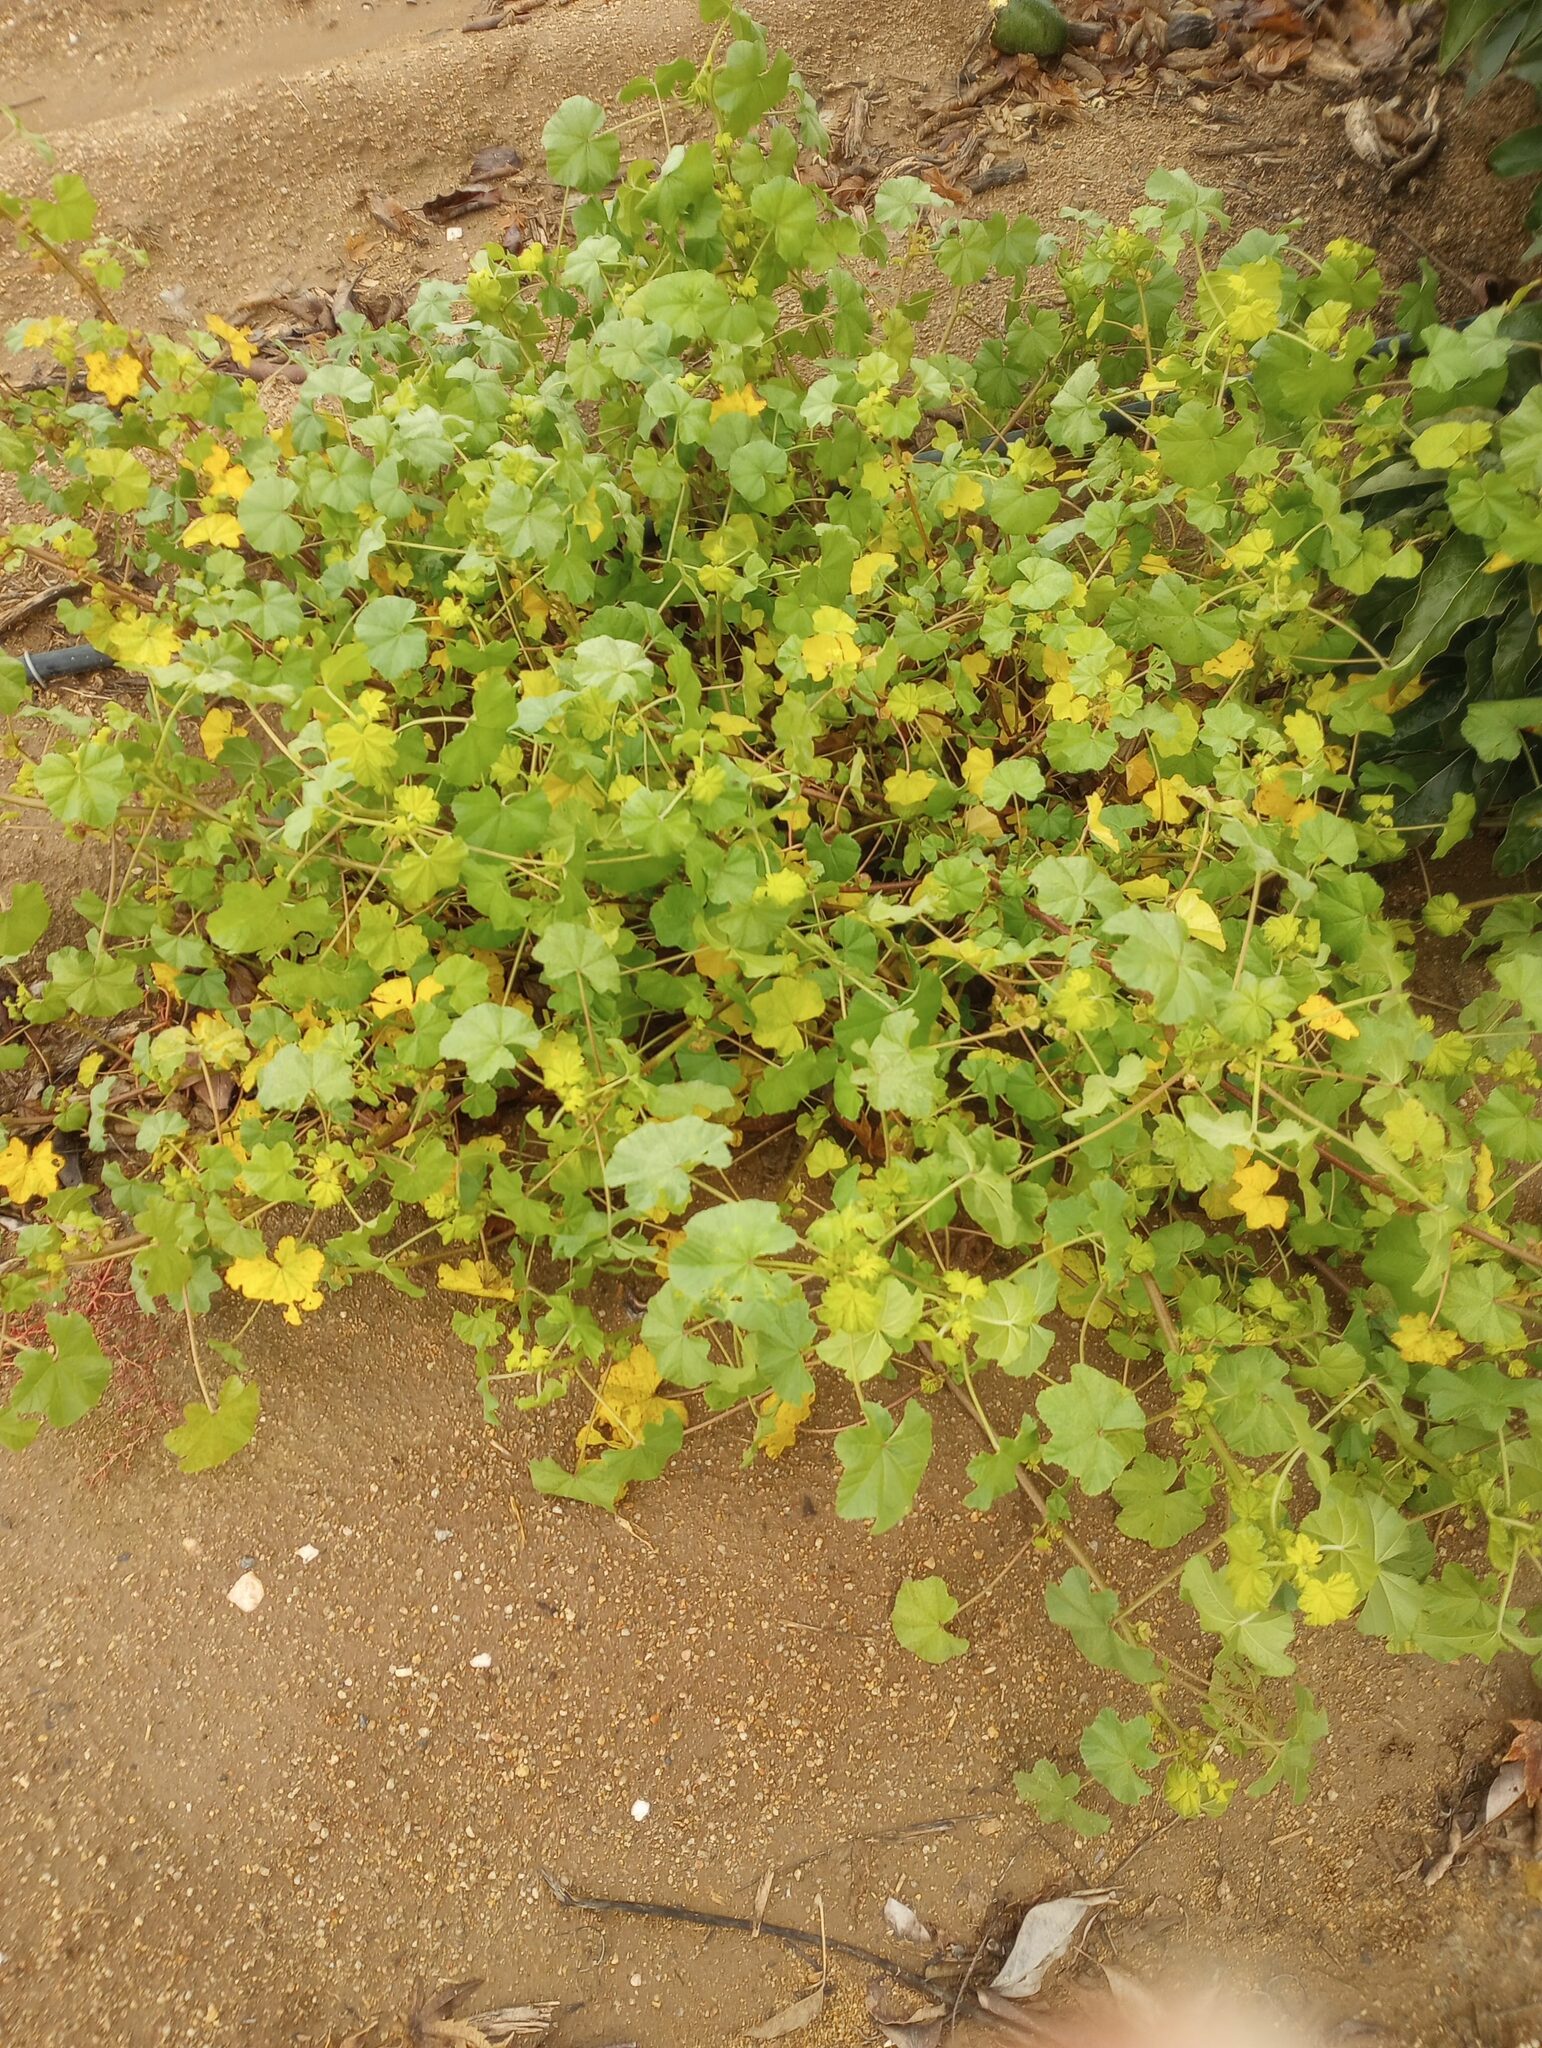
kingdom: Plantae
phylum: Tracheophyta
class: Magnoliopsida
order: Malvales
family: Malvaceae
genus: Malva
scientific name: Malva parviflora
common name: Least mallow
